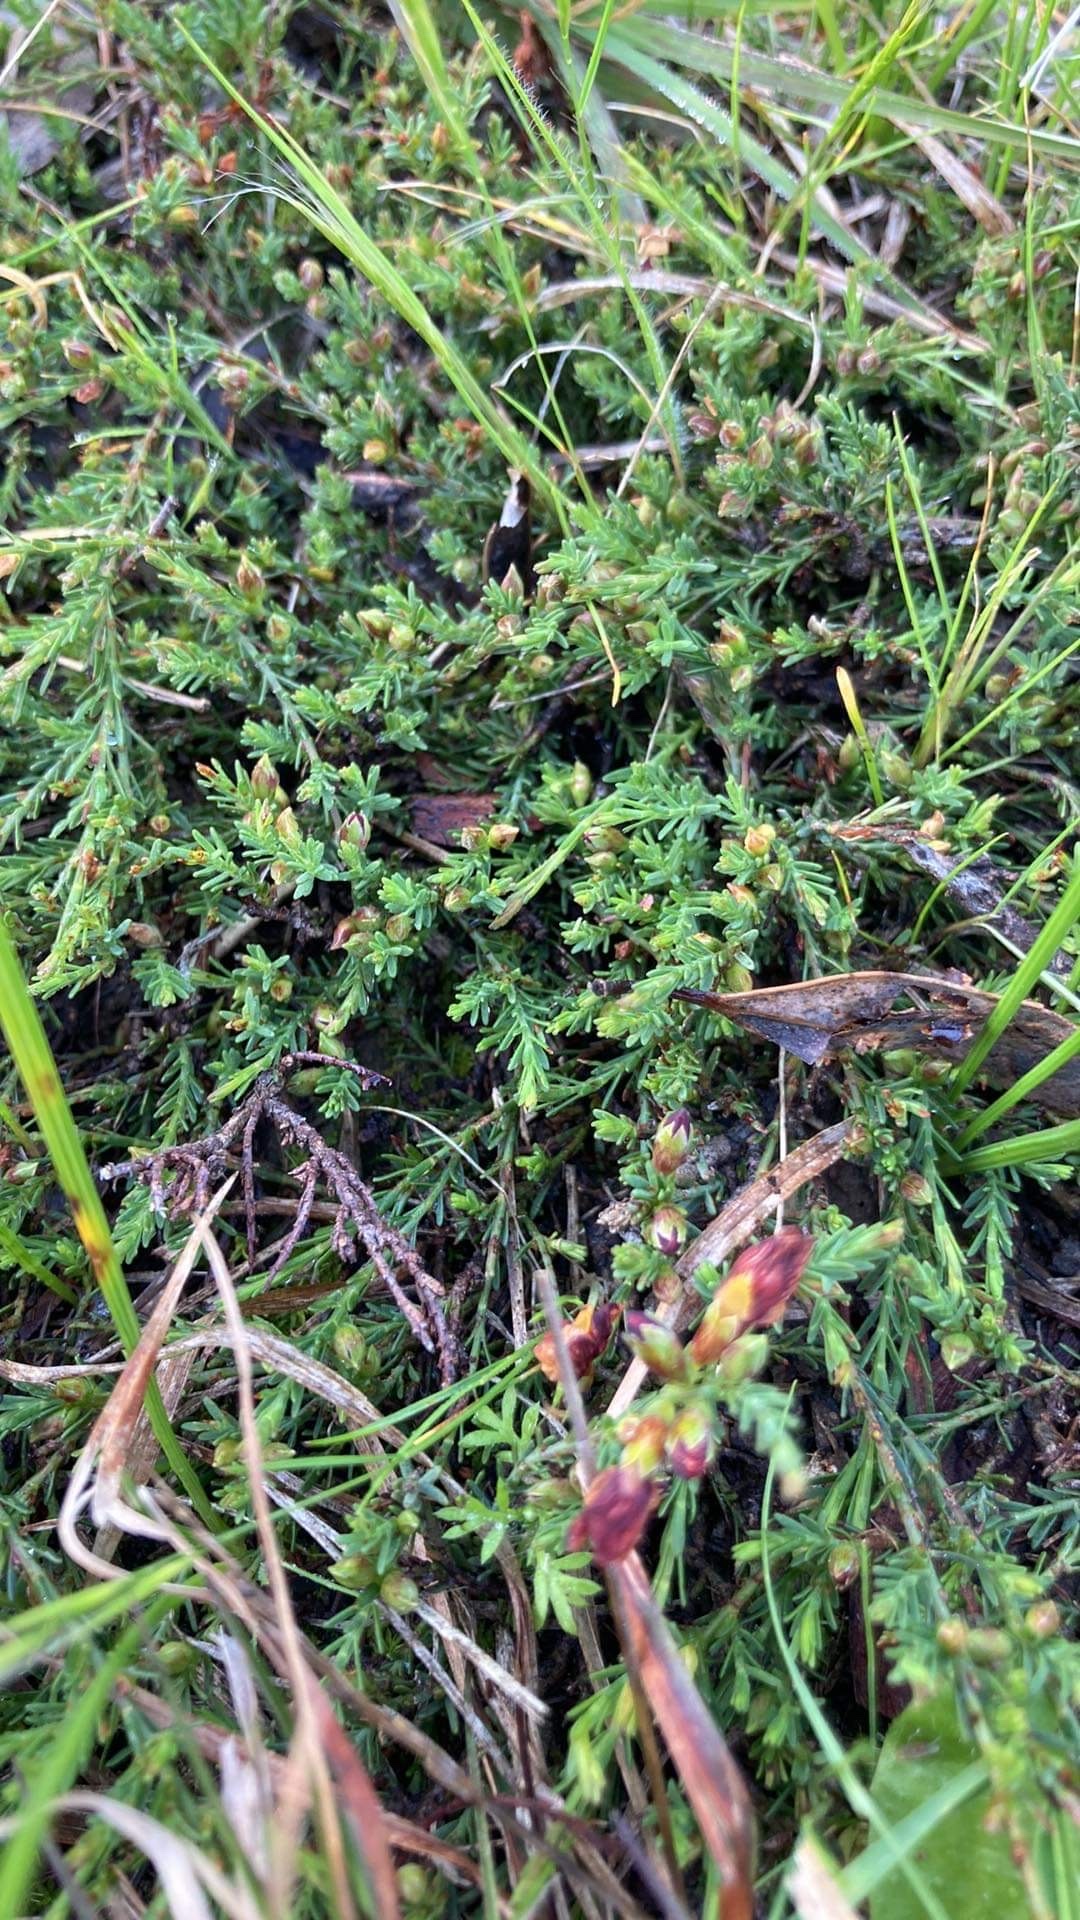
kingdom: Plantae
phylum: Tracheophyta
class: Magnoliopsida
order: Fabales
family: Fabaceae
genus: Eutaxia
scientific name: Eutaxia microphylla
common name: Mallee bush-pea
